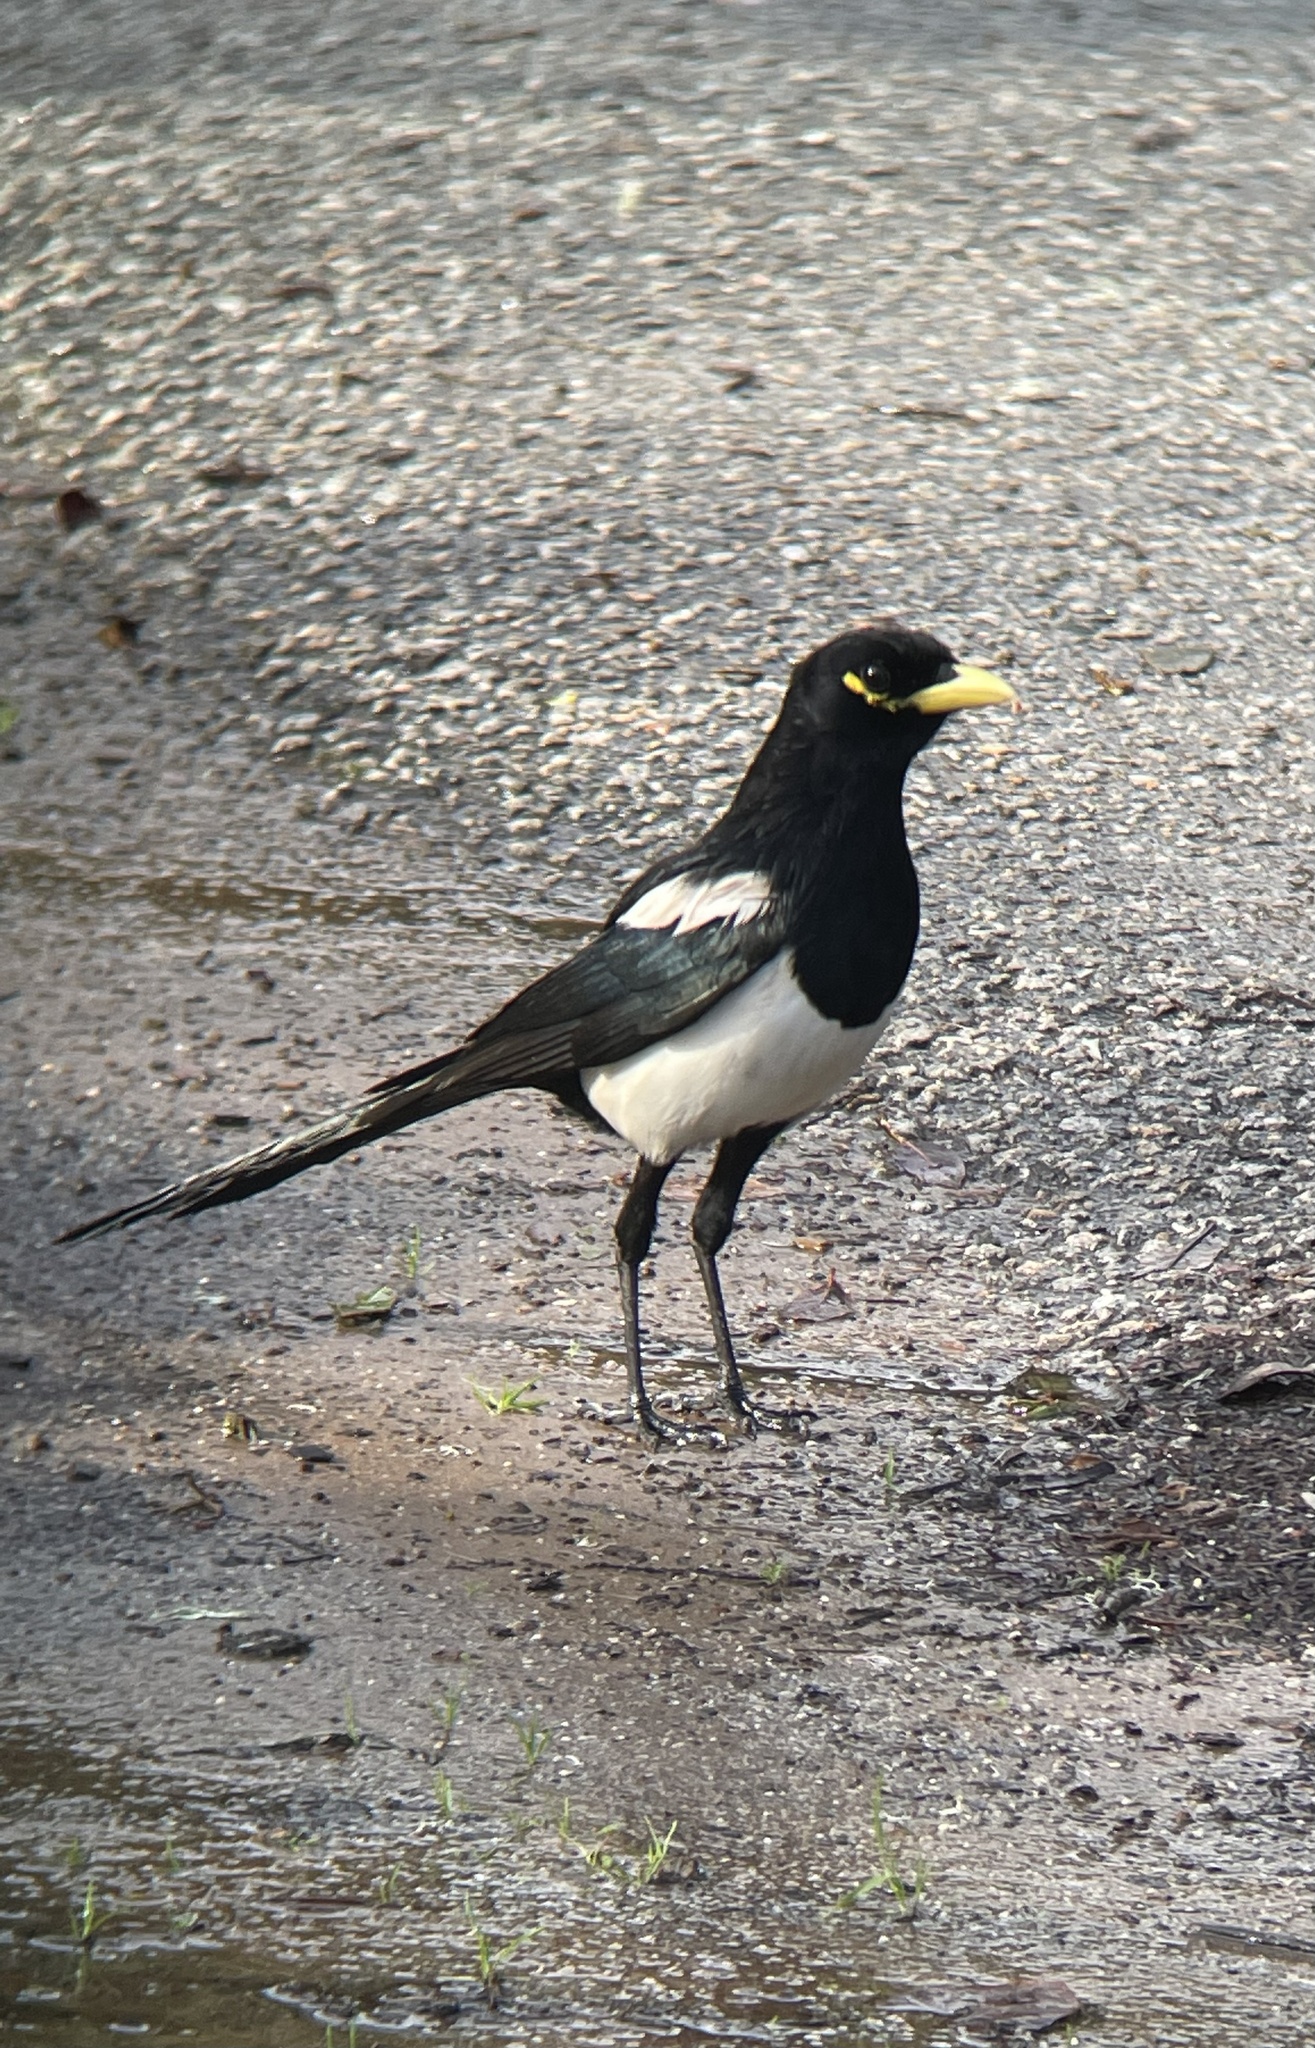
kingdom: Animalia
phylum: Chordata
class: Aves
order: Passeriformes
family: Corvidae
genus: Pica
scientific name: Pica nuttalli
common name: Yellow-billed magpie
